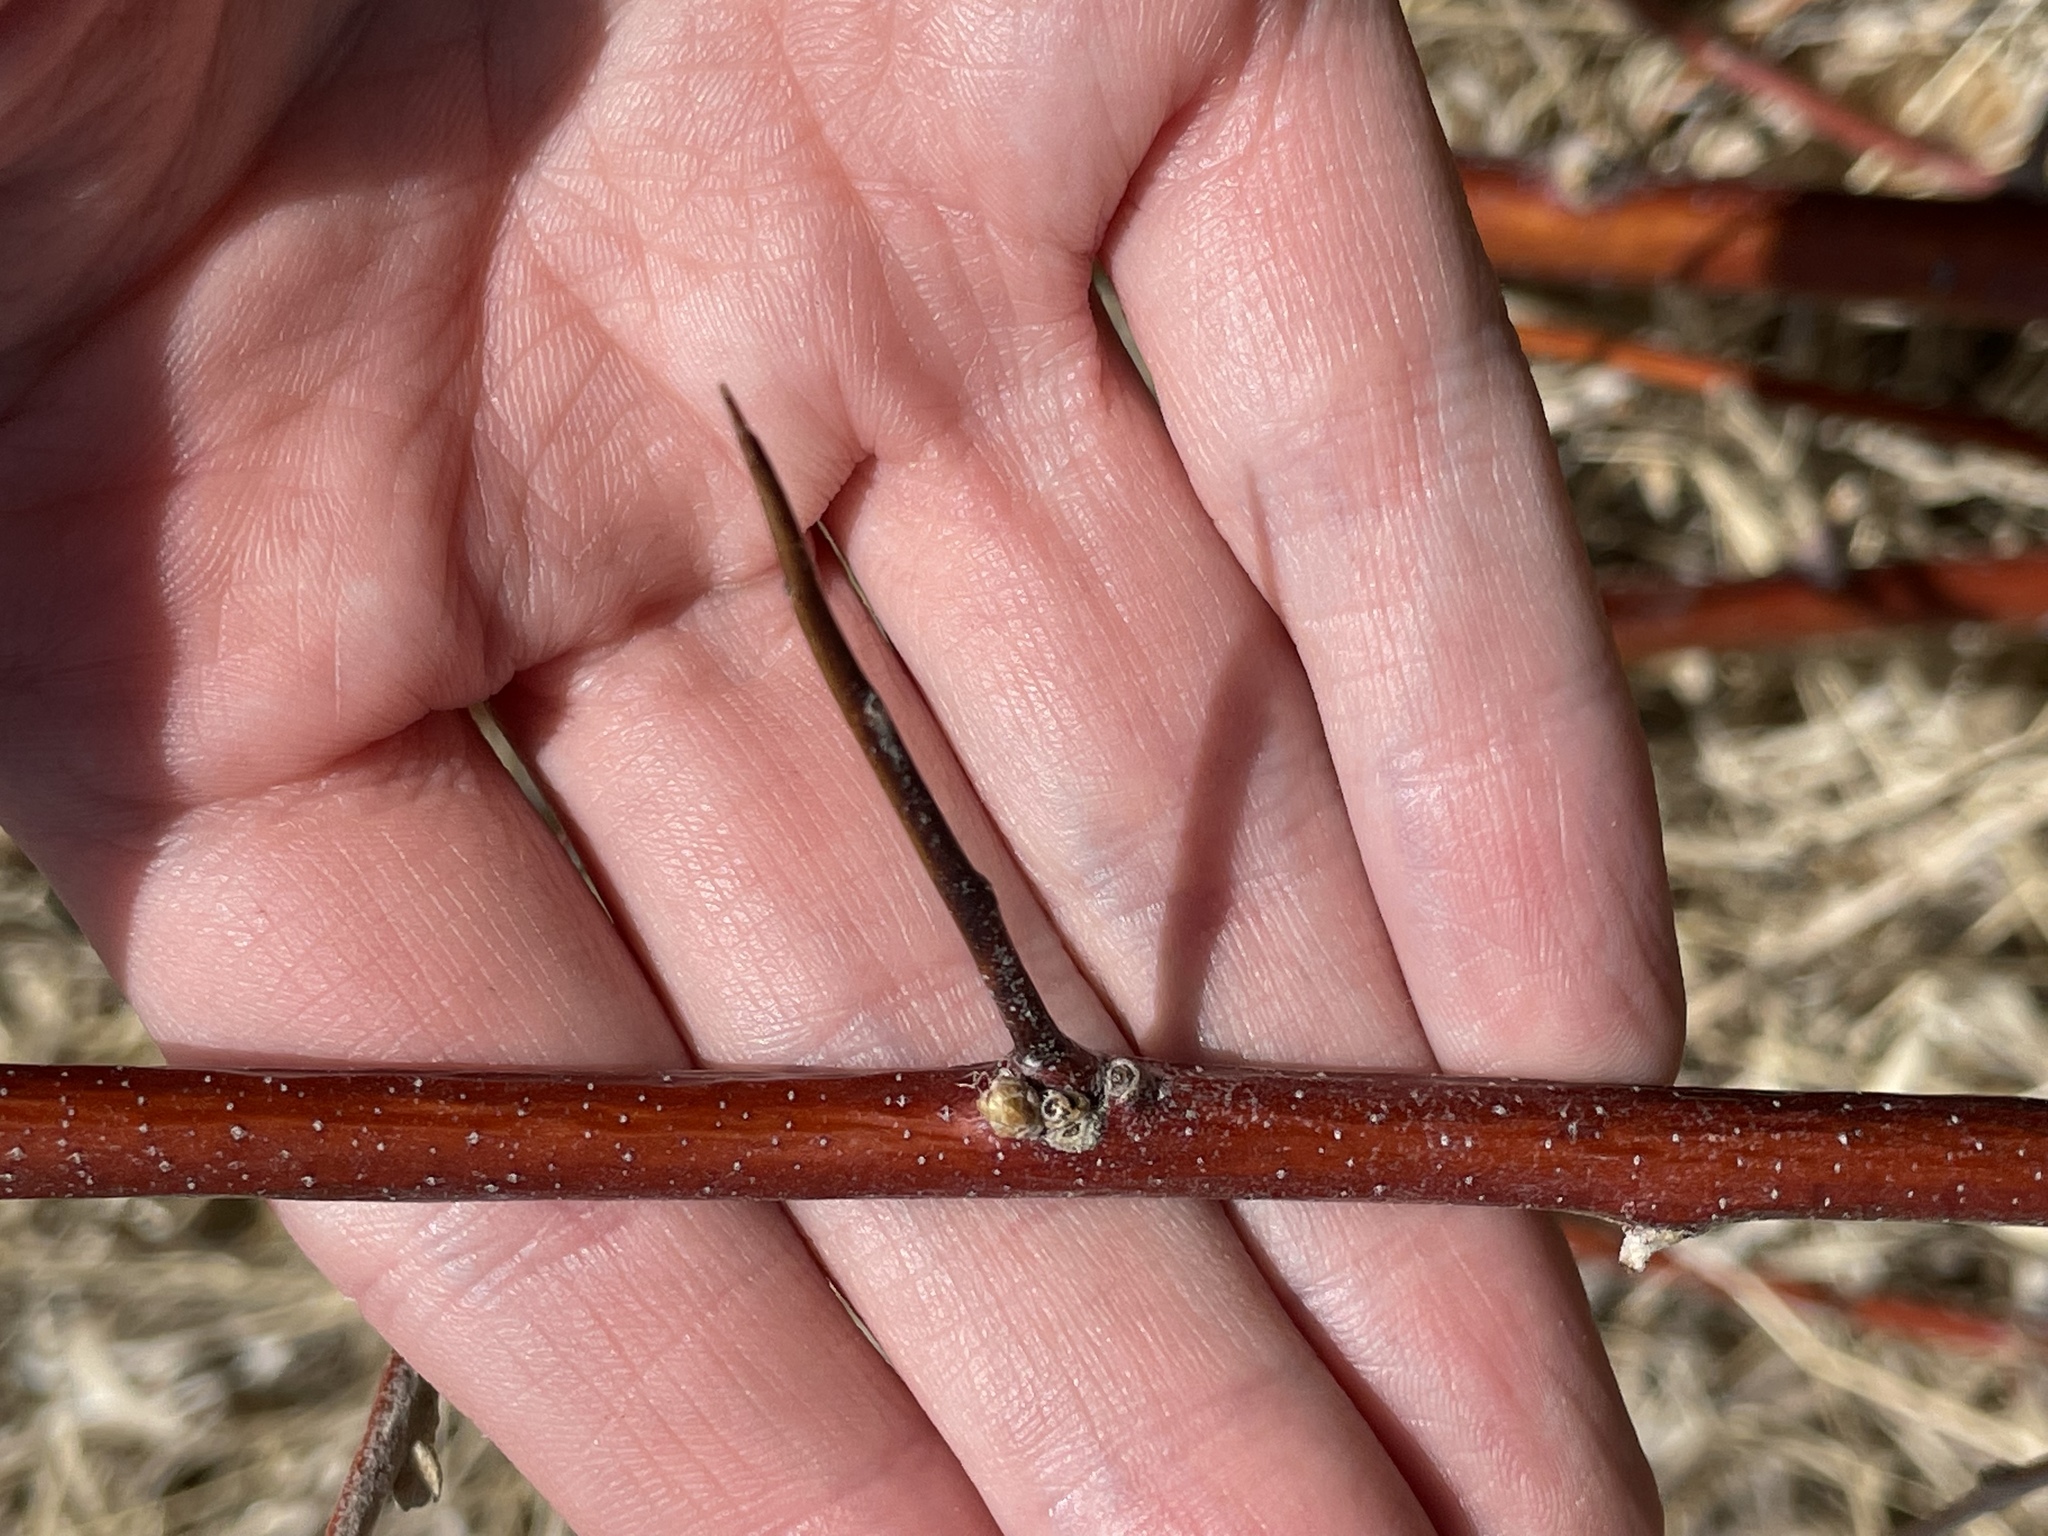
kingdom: Plantae
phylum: Tracheophyta
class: Magnoliopsida
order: Rosales
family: Elaeagnaceae
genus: Elaeagnus
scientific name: Elaeagnus angustifolia
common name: Russian olive
